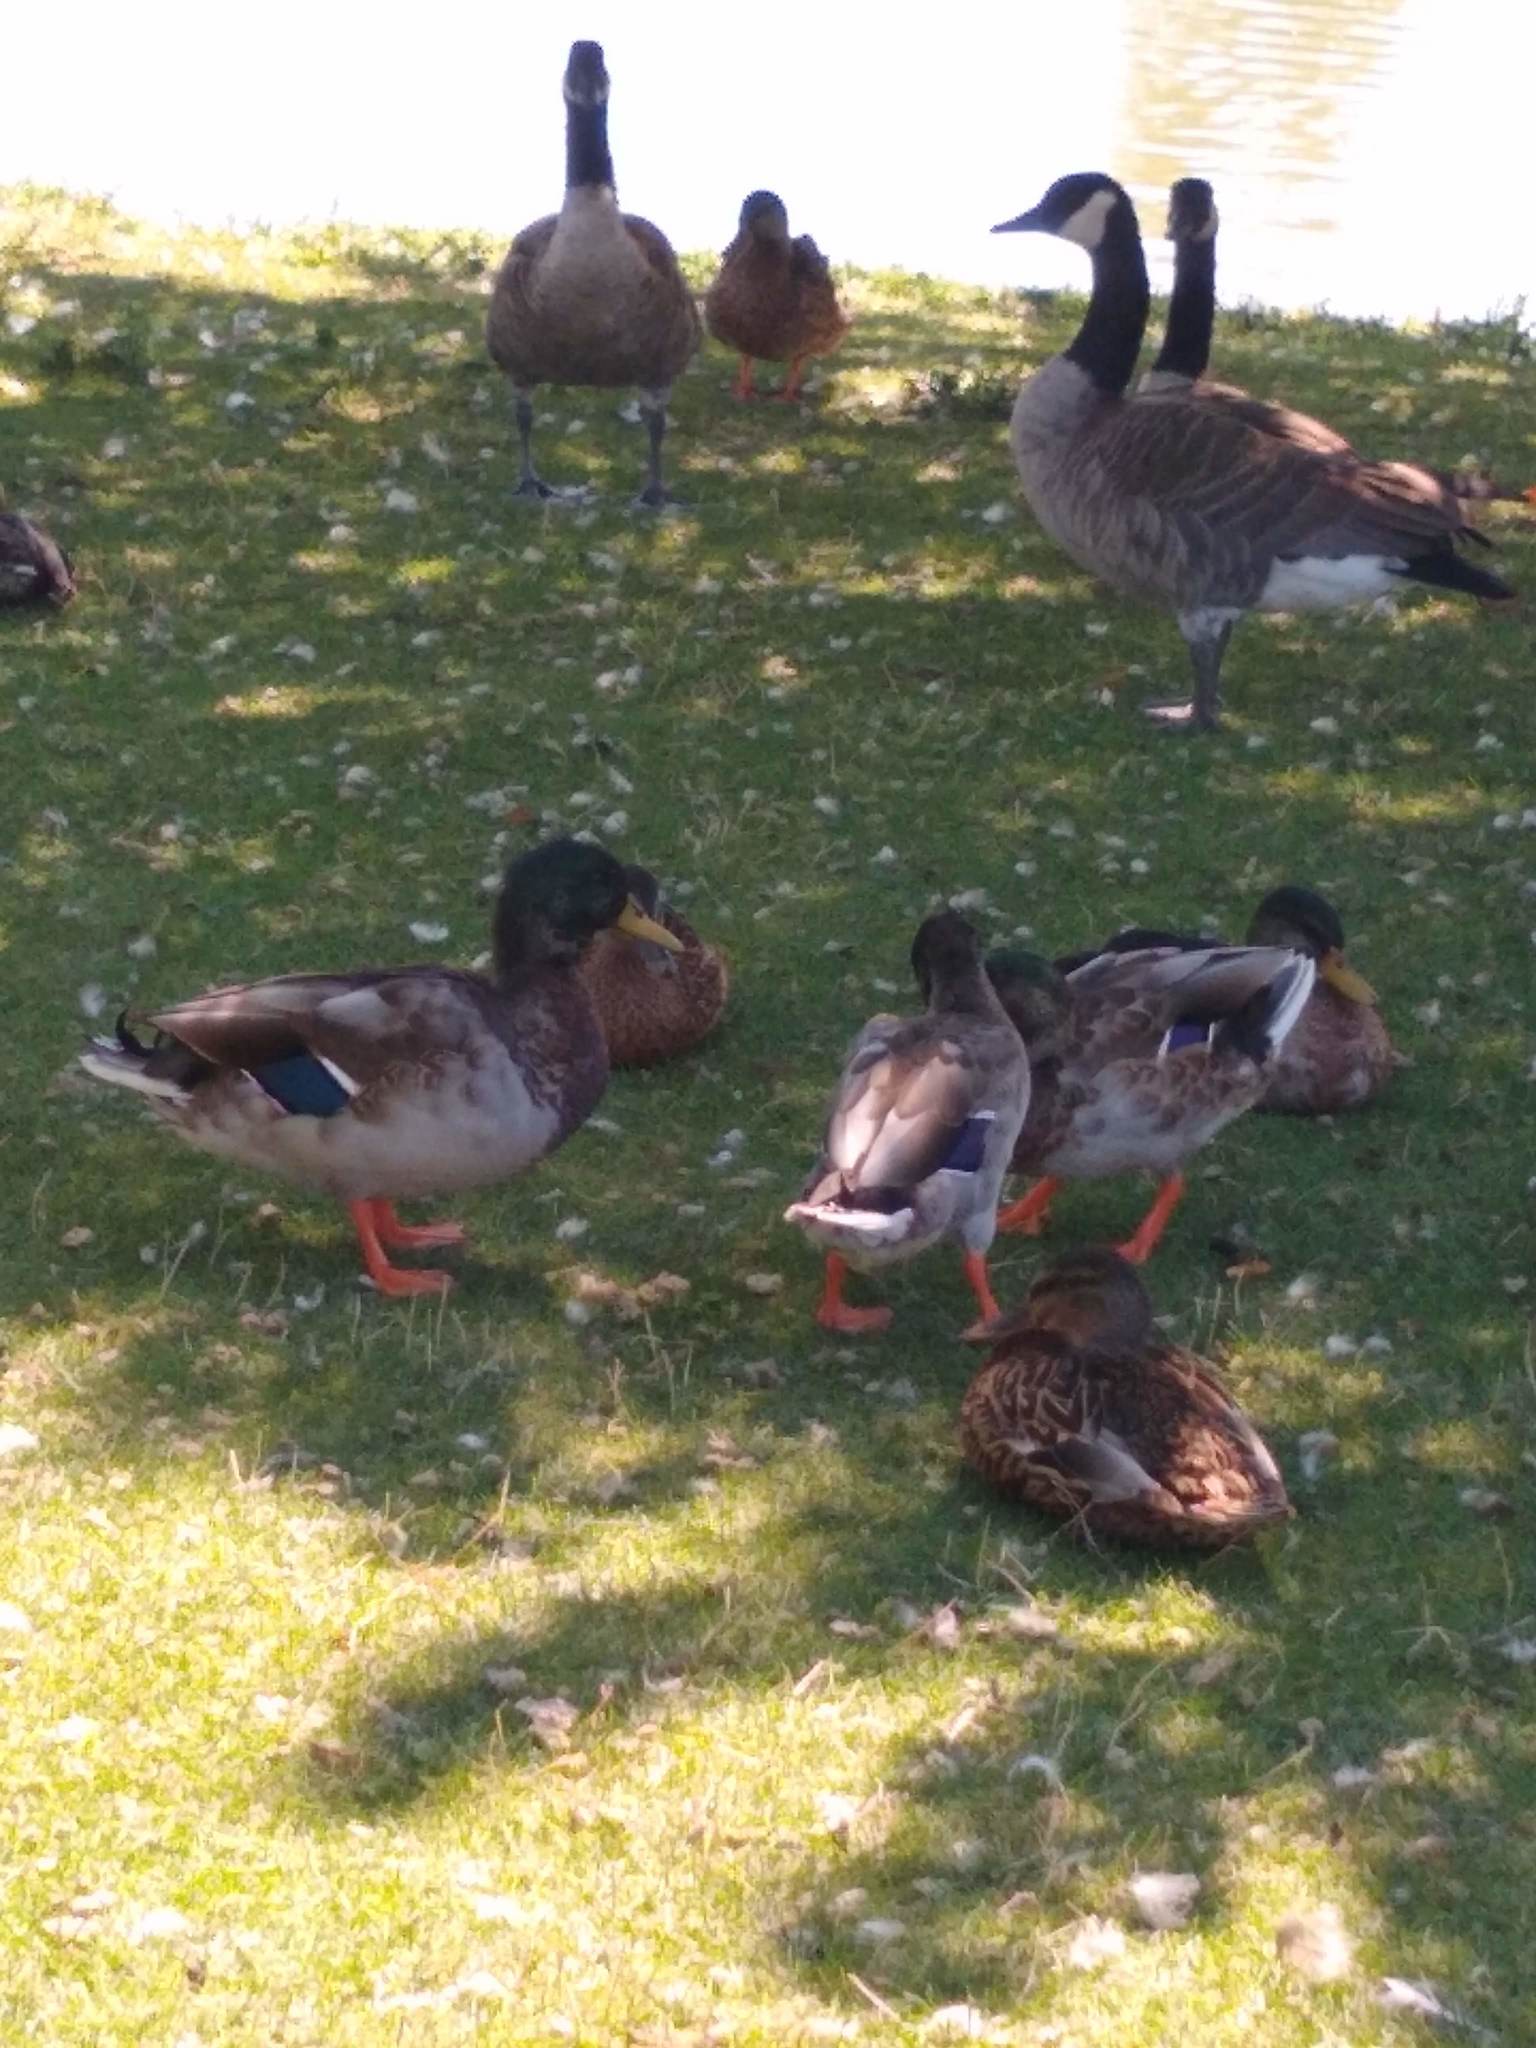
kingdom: Animalia
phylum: Chordata
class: Aves
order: Anseriformes
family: Anatidae
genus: Anas
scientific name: Anas platyrhynchos
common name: Mallard
